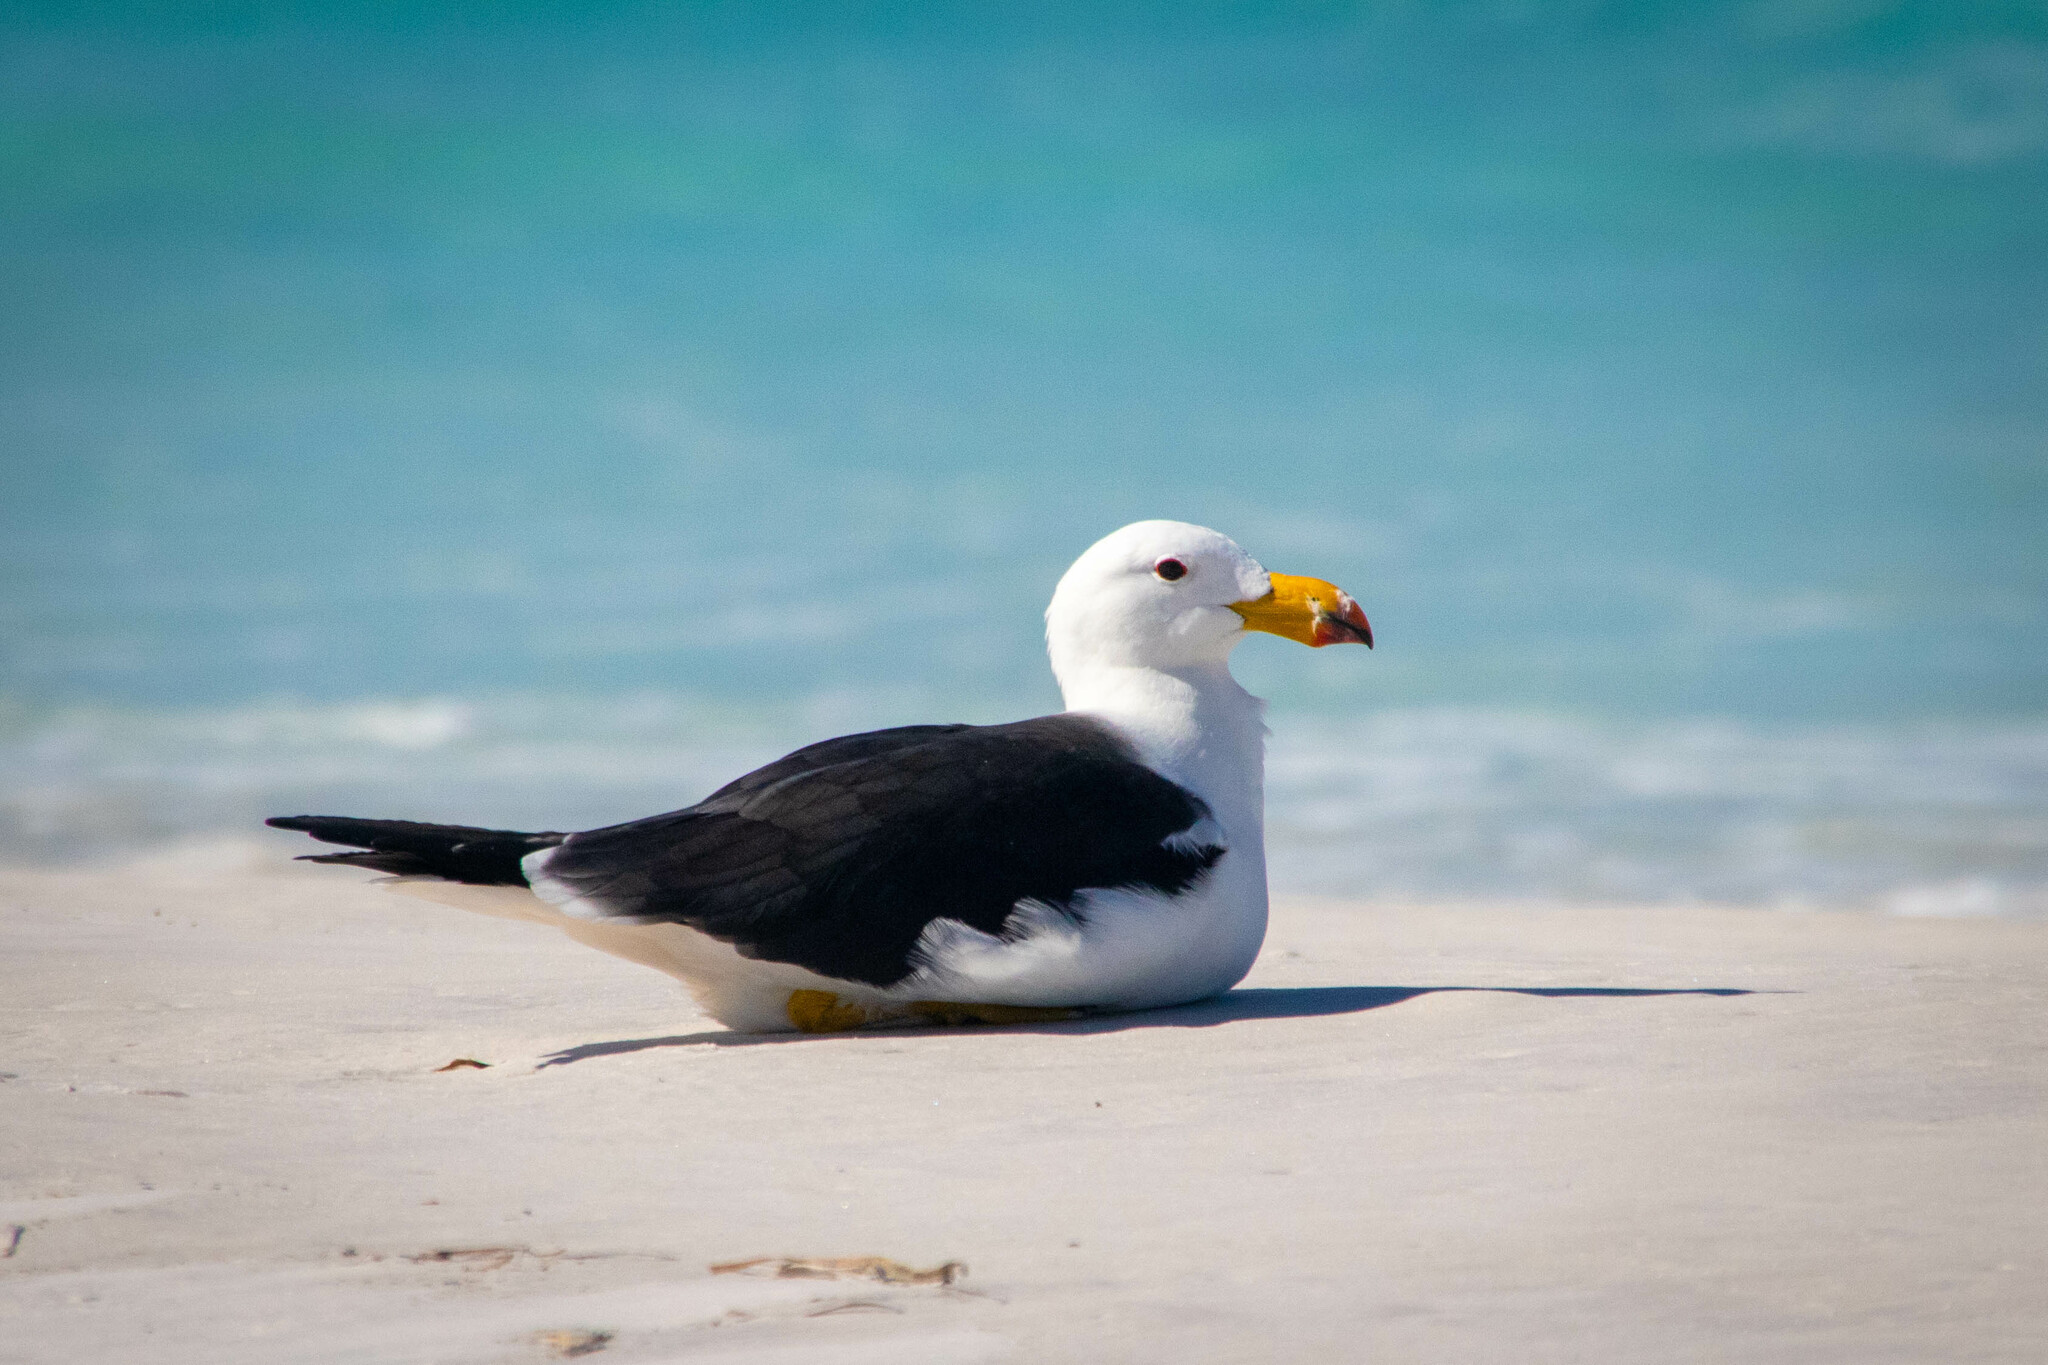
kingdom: Animalia
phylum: Chordata
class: Aves
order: Charadriiformes
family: Laridae
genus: Larus
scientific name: Larus pacificus
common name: Pacific gull
